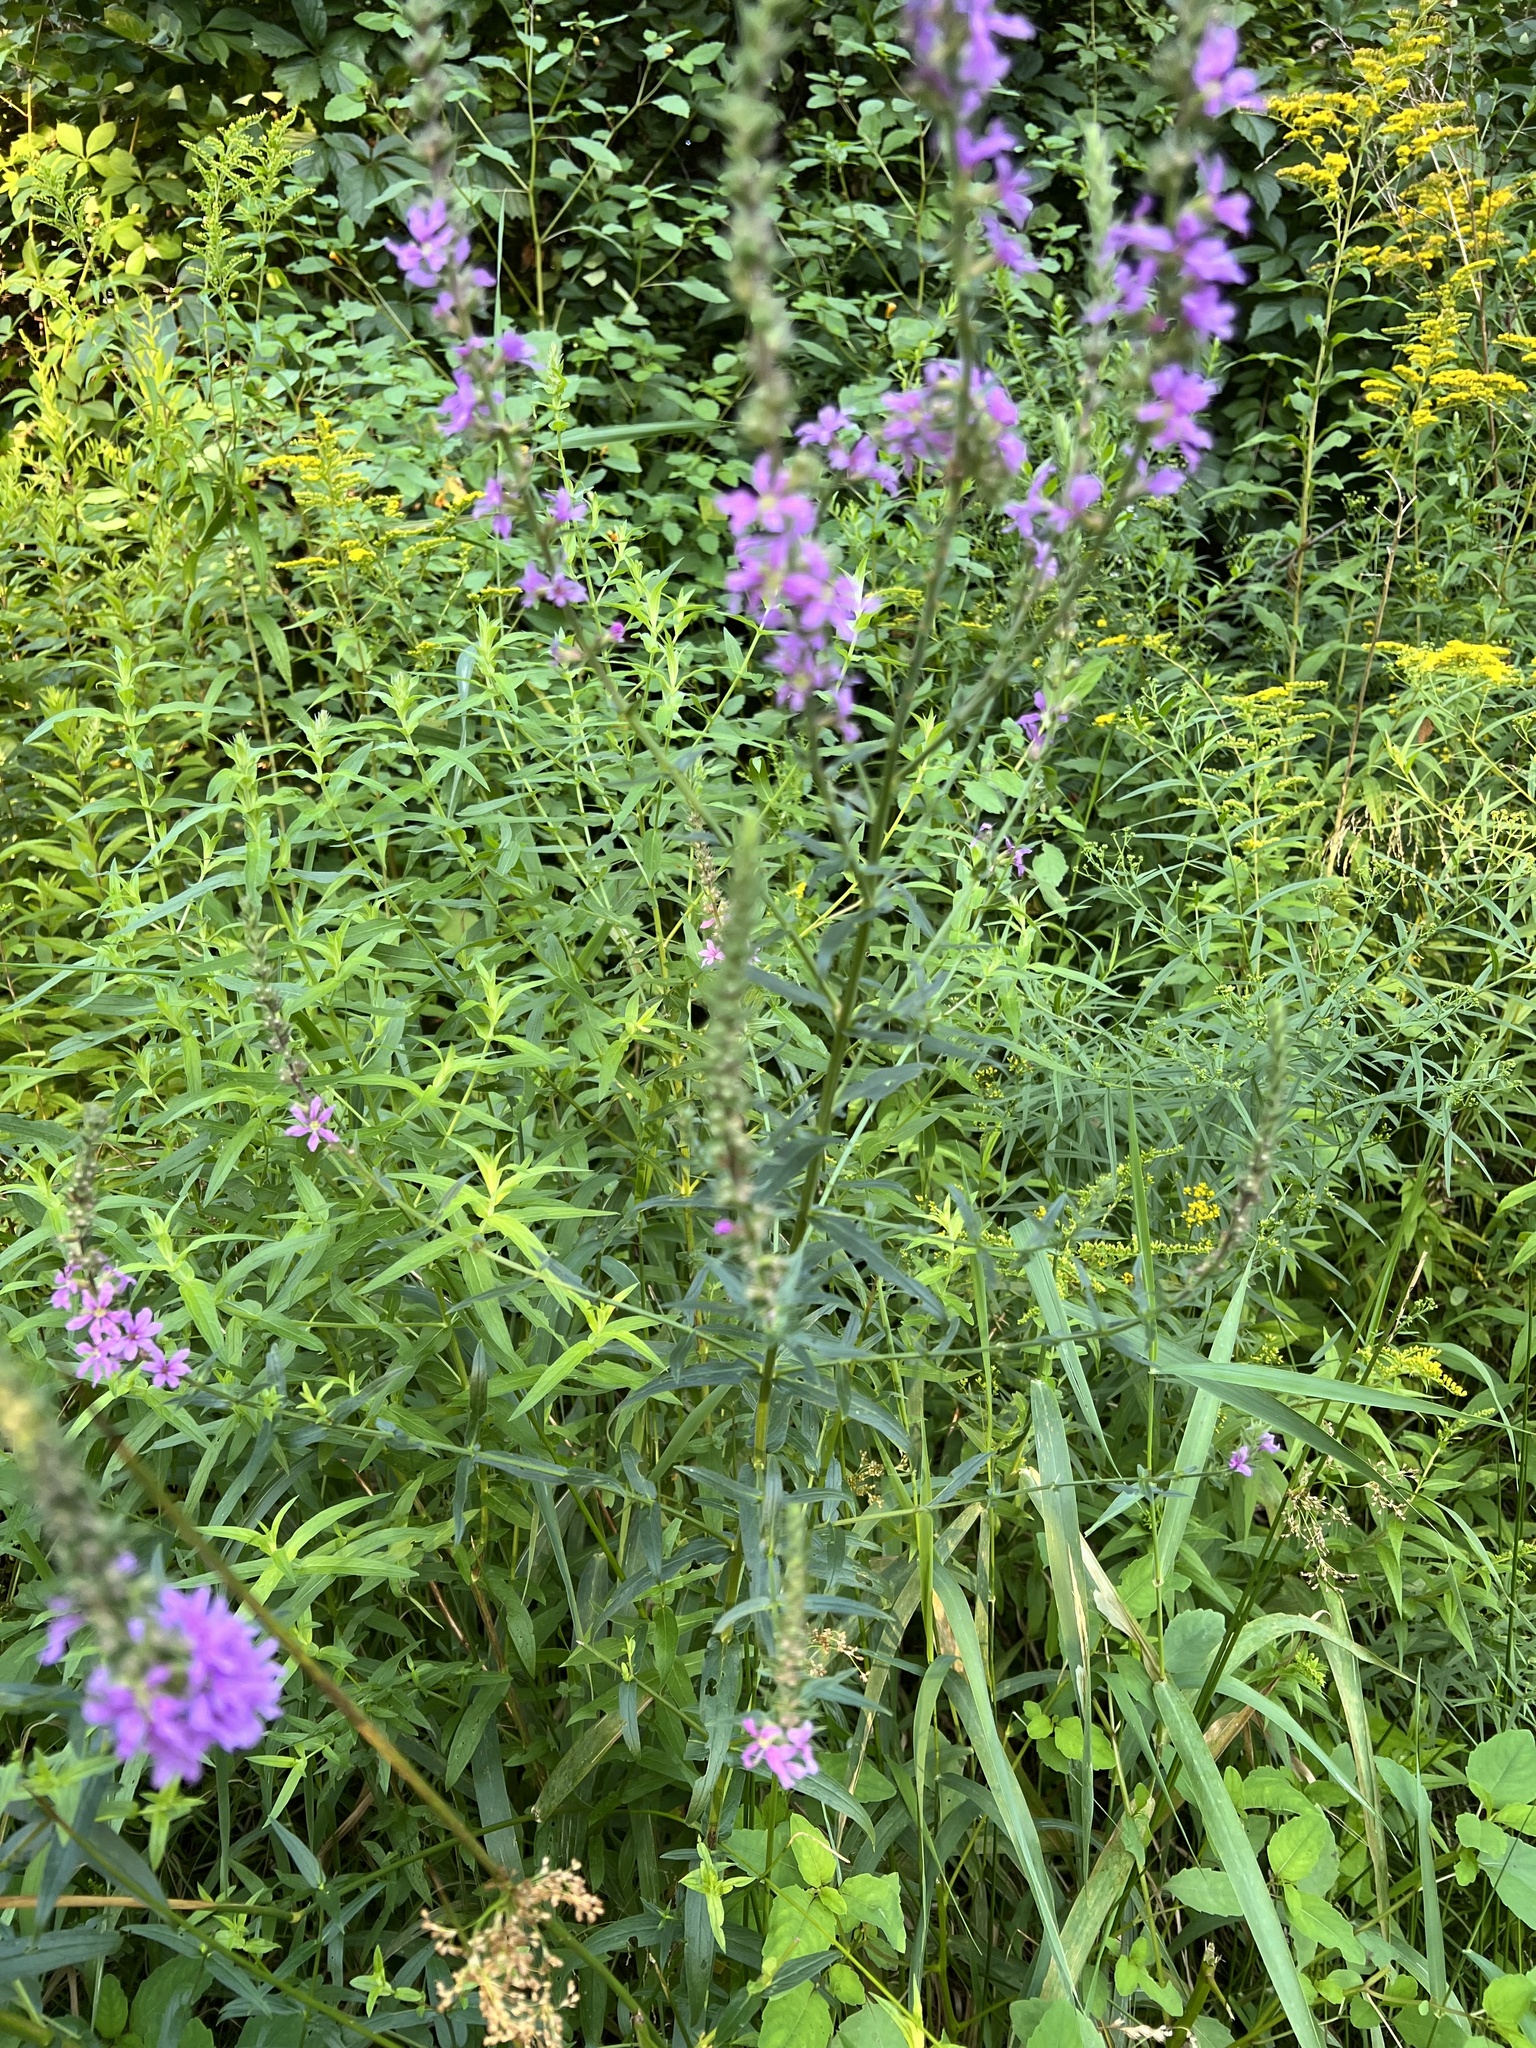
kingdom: Plantae
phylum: Tracheophyta
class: Magnoliopsida
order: Myrtales
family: Lythraceae
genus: Lythrum
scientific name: Lythrum salicaria
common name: Purple loosestrife
